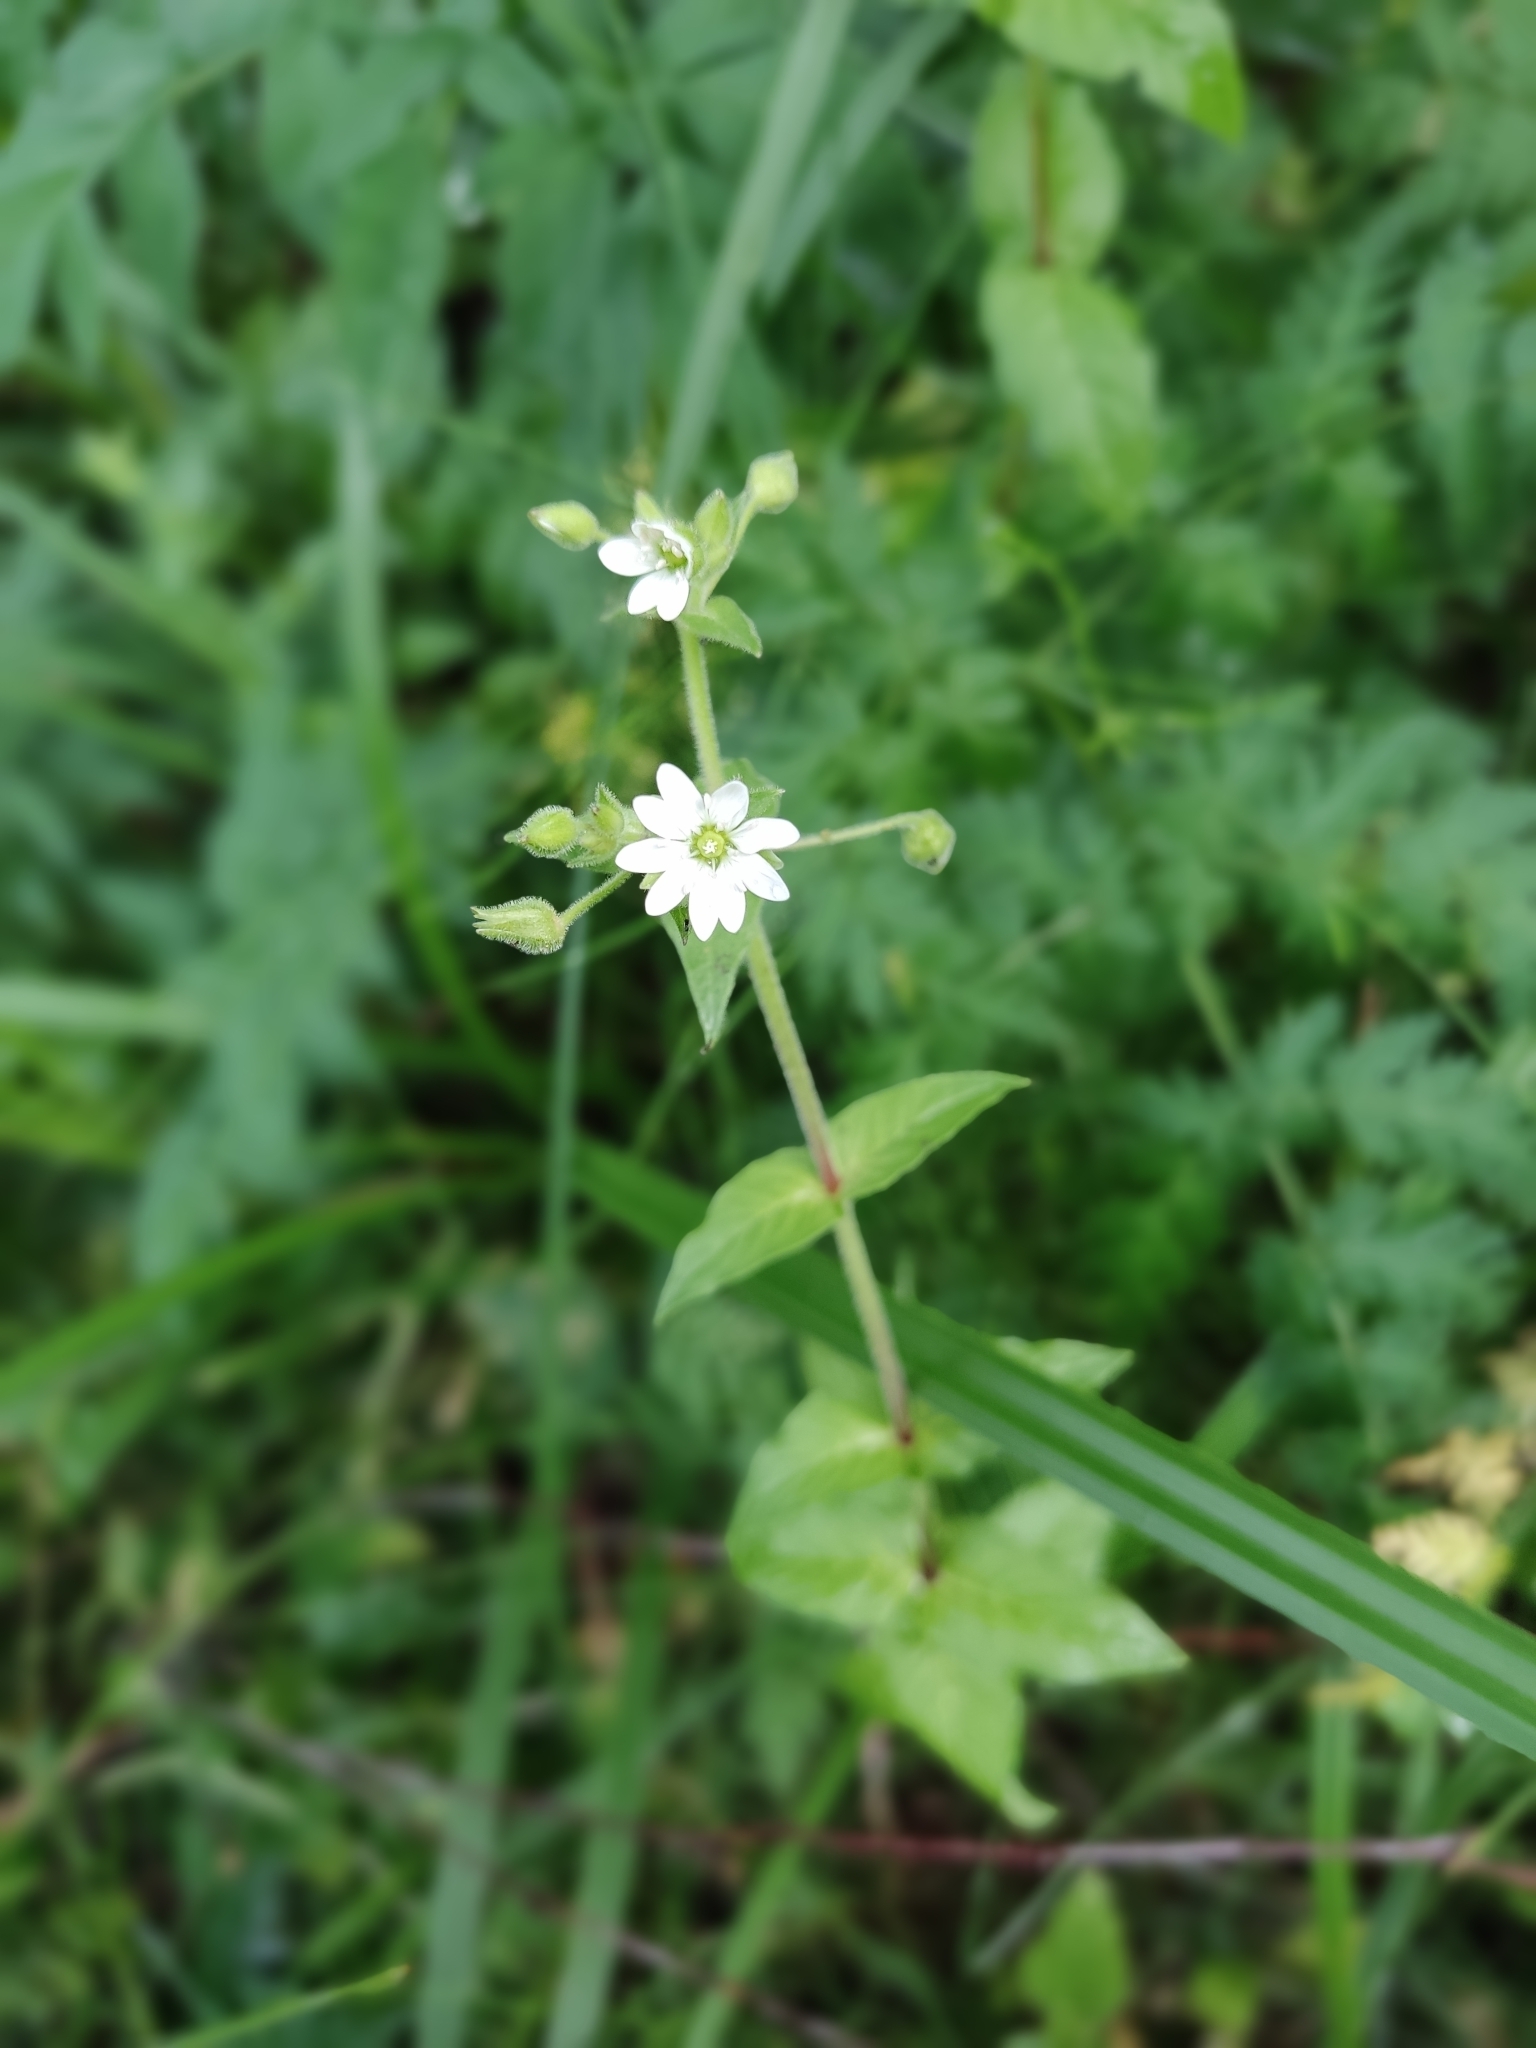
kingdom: Plantae
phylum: Tracheophyta
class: Magnoliopsida
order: Caryophyllales
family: Caryophyllaceae
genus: Stellaria
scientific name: Stellaria aquatica
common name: Water chickweed
